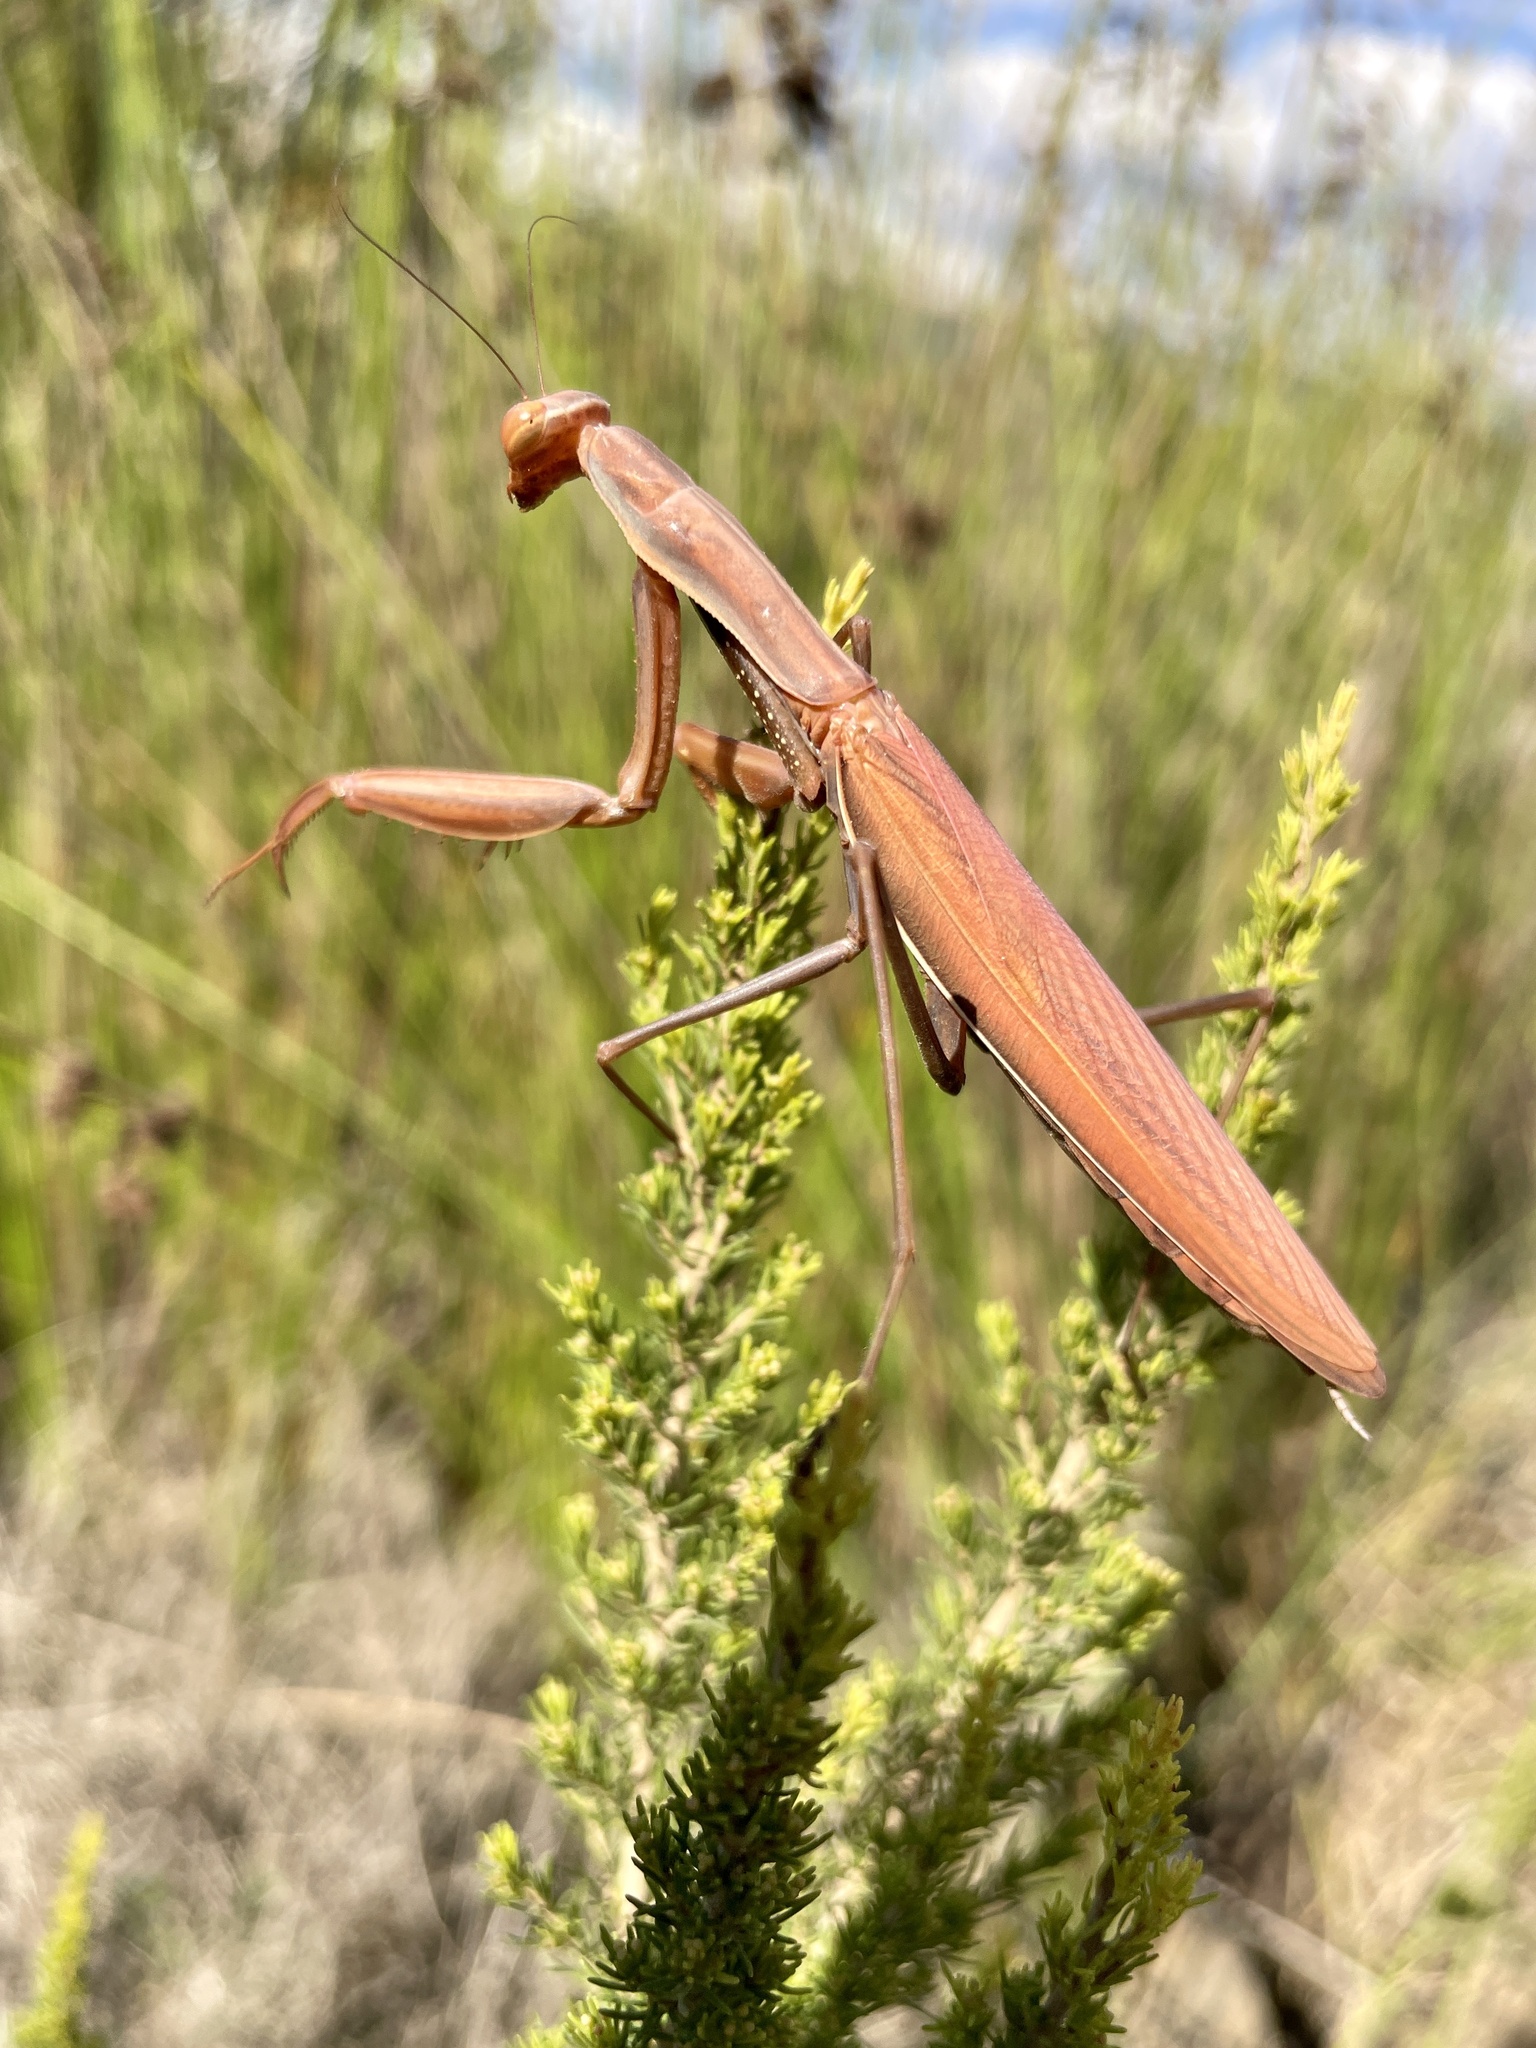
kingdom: Animalia
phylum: Arthropoda
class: Insecta
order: Mantodea
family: Mantidae
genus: Mantis
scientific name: Mantis religiosa
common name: Praying mantis
